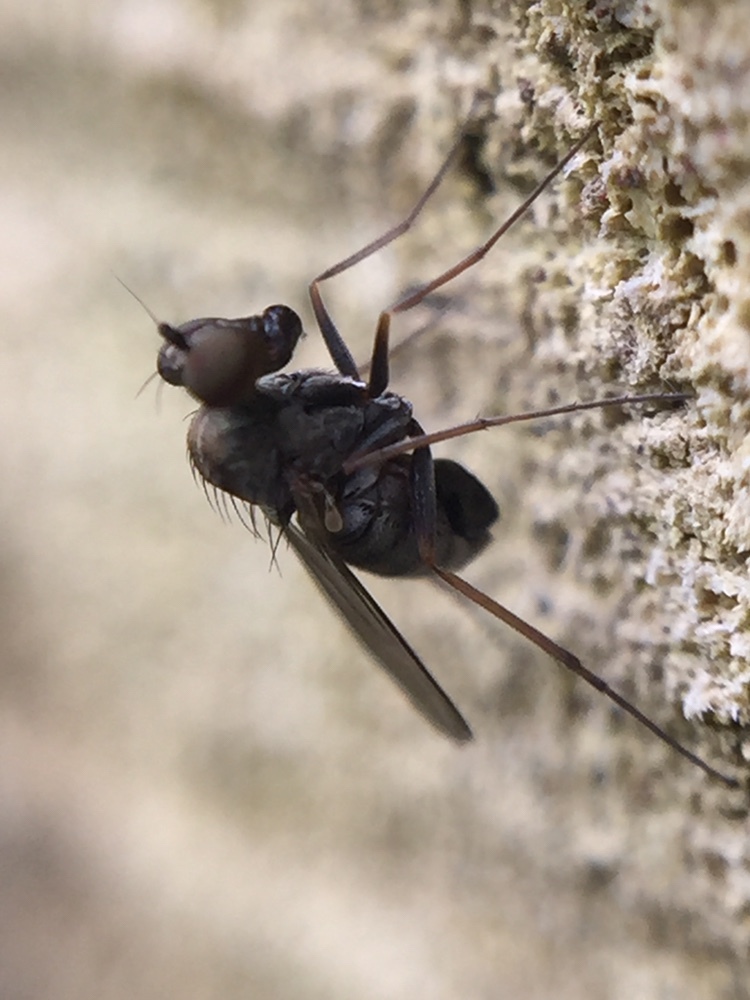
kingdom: Animalia
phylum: Arthropoda
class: Insecta
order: Diptera
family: Dolichopodidae
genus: Medetera
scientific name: Medetera grisescens
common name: Fly
